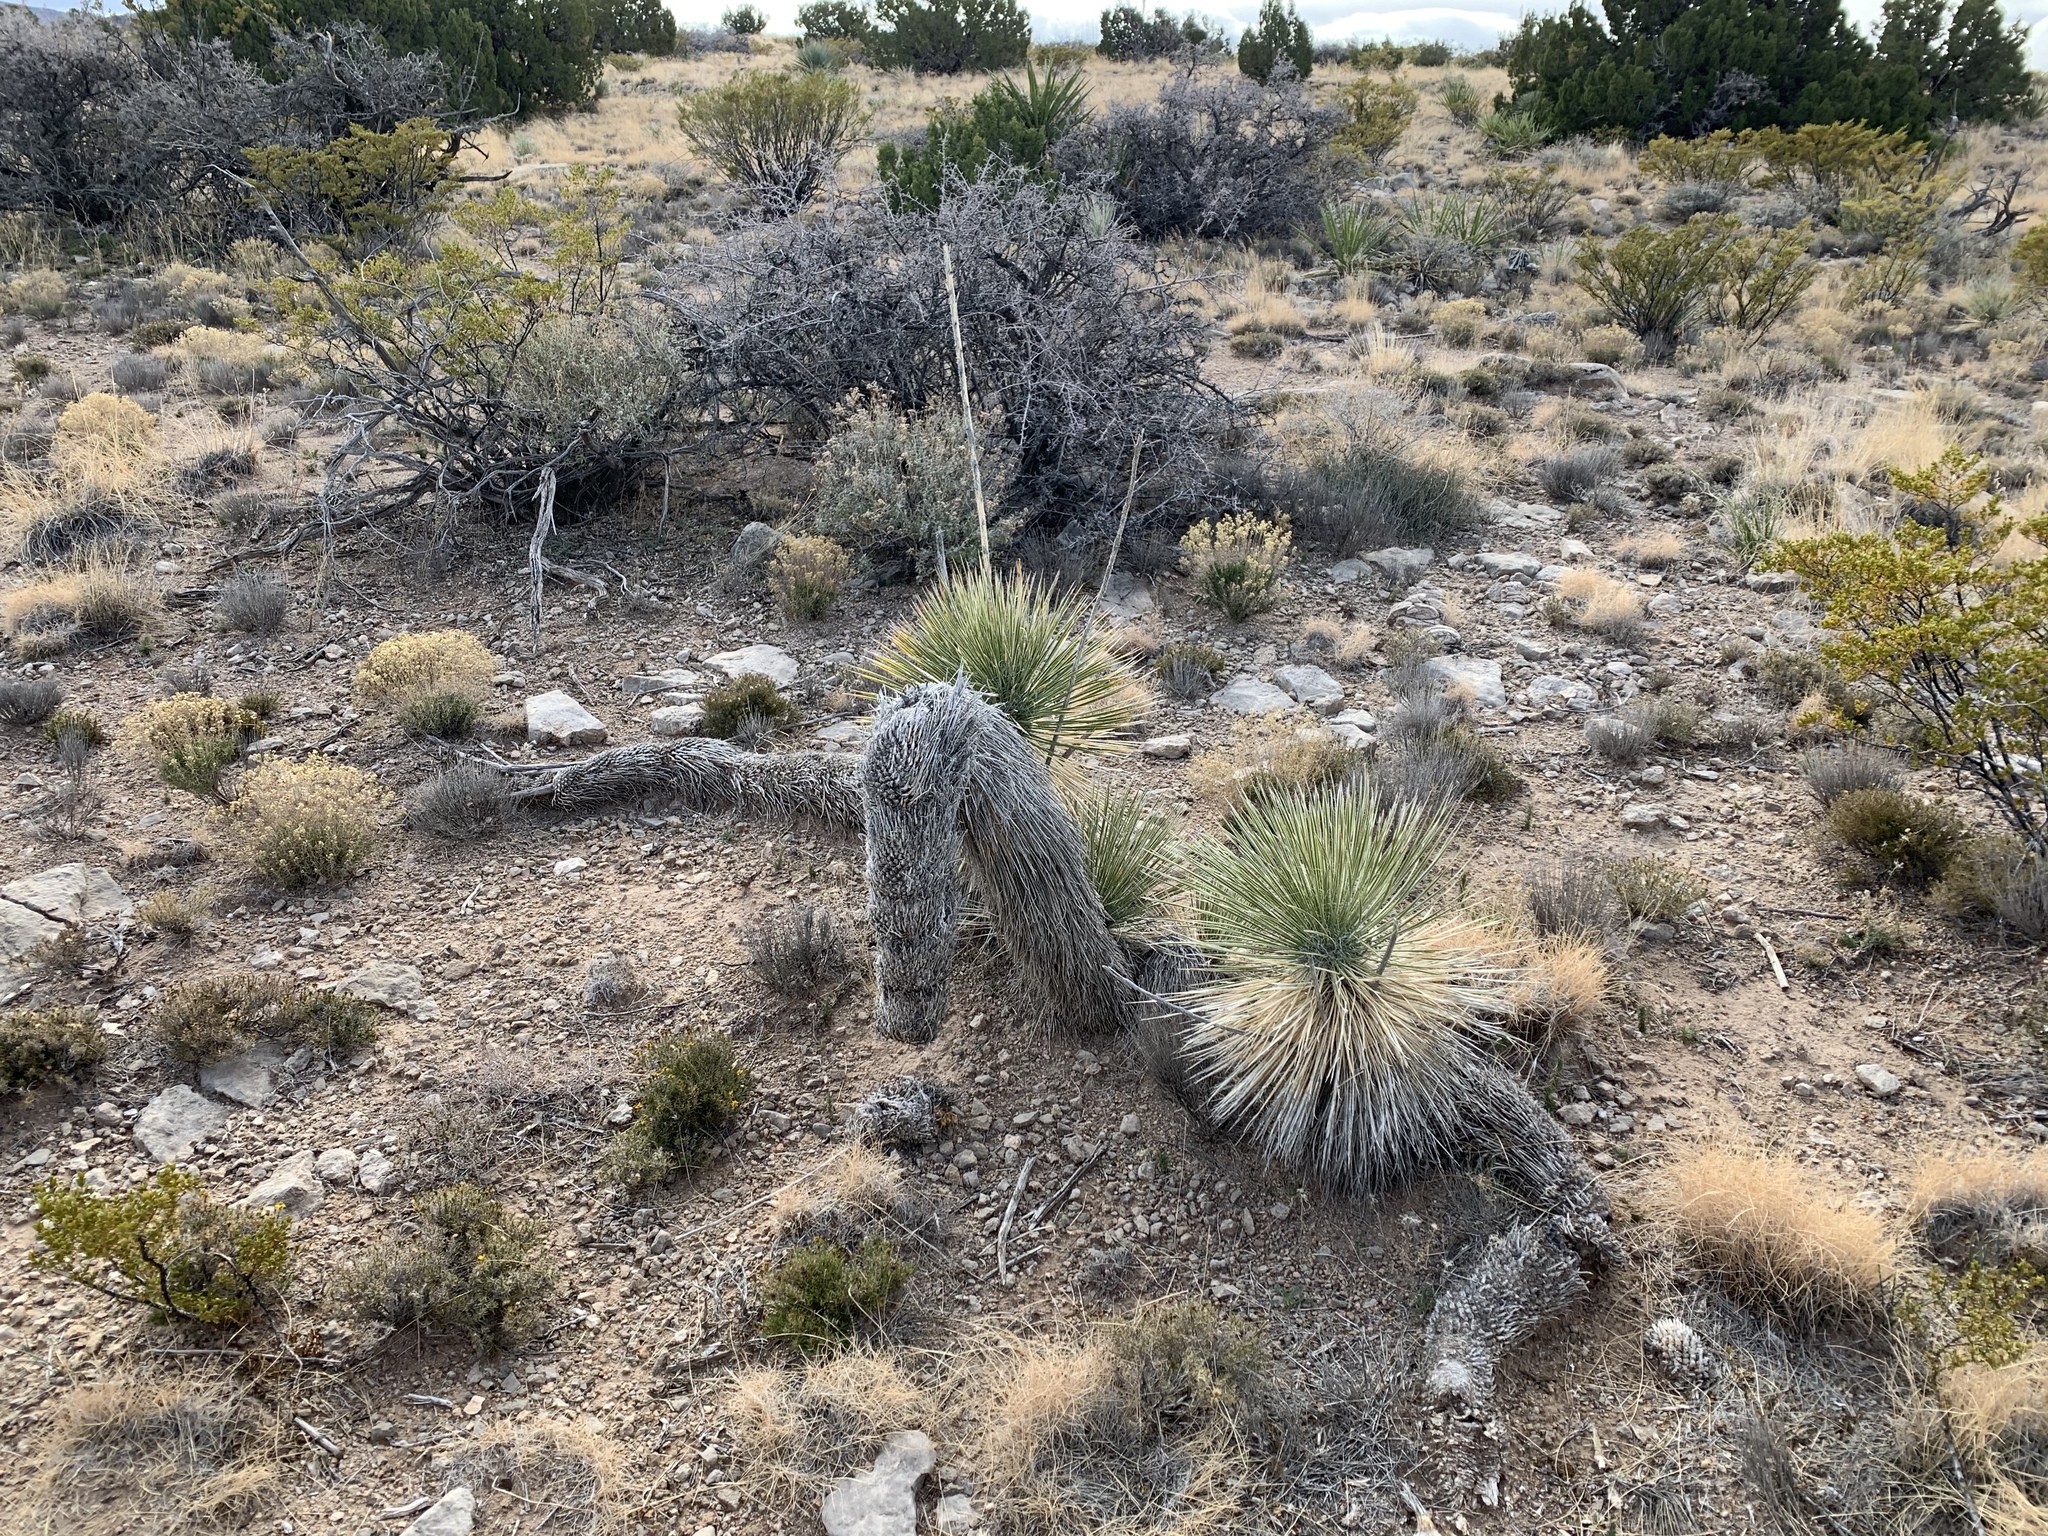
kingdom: Plantae
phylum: Tracheophyta
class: Liliopsida
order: Asparagales
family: Asparagaceae
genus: Yucca
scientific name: Yucca elata
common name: Palmella
